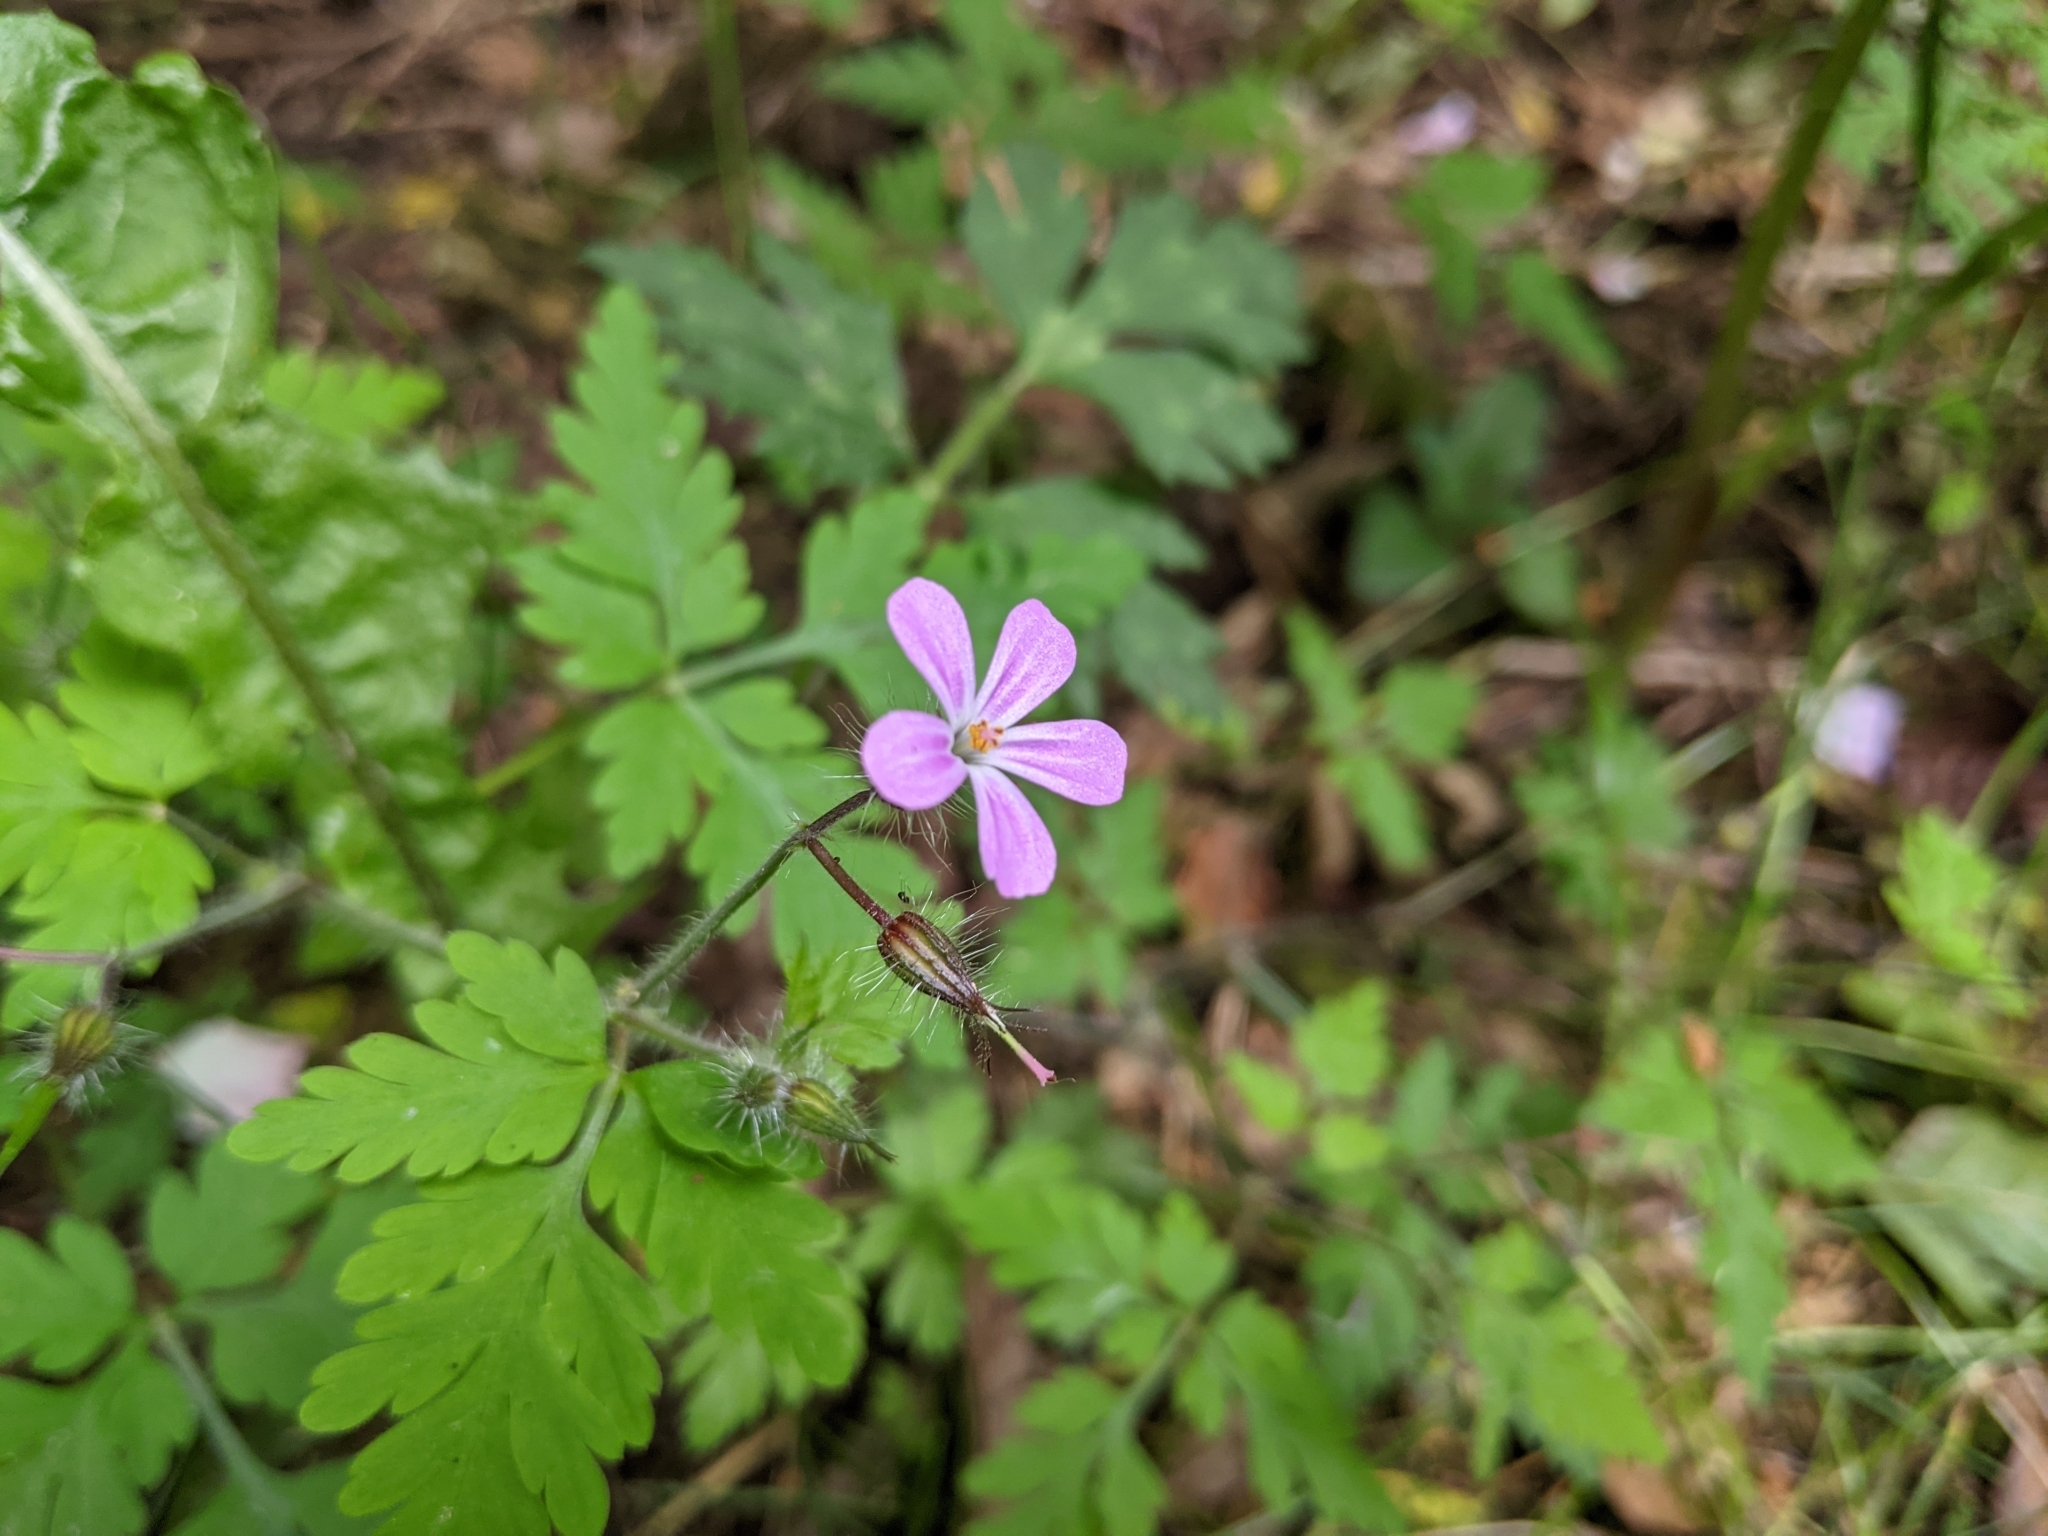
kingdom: Plantae
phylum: Tracheophyta
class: Magnoliopsida
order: Geraniales
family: Geraniaceae
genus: Geranium
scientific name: Geranium robertianum
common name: Herb-robert
